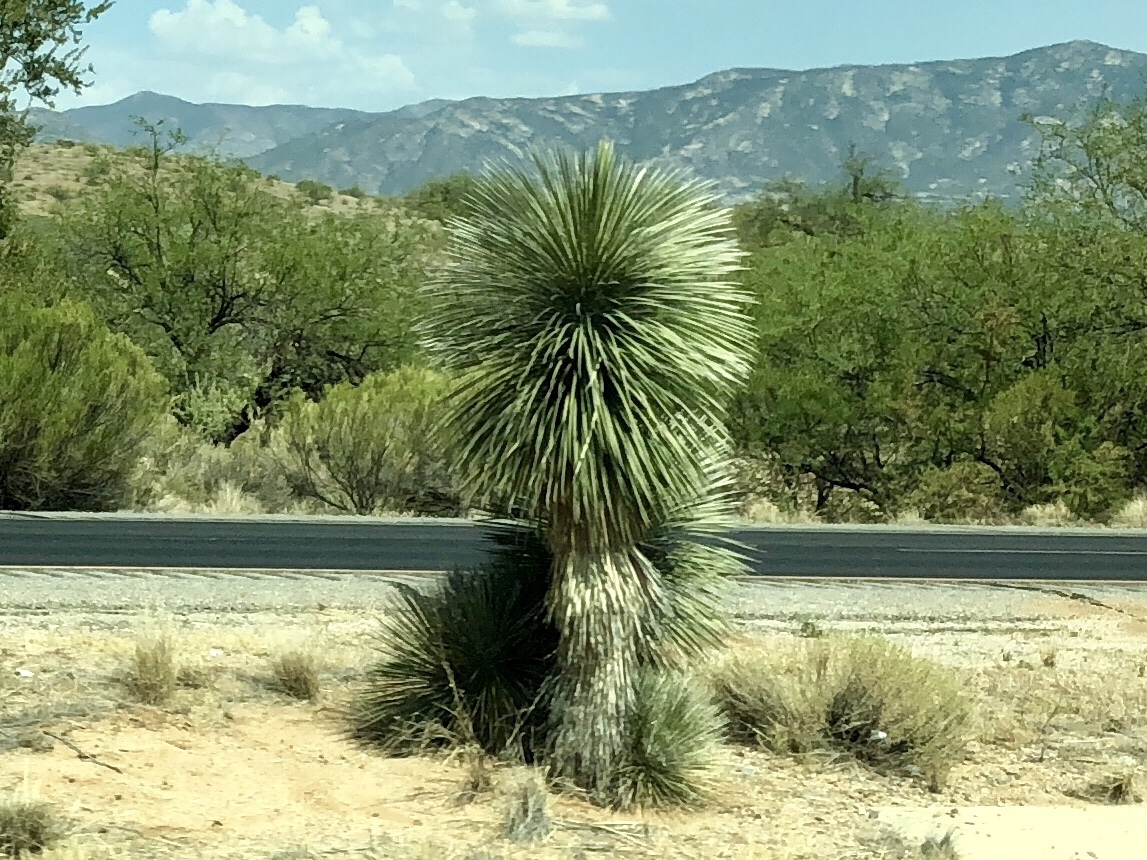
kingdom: Plantae
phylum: Tracheophyta
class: Liliopsida
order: Asparagales
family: Asparagaceae
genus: Yucca
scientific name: Yucca elata
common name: Palmella
